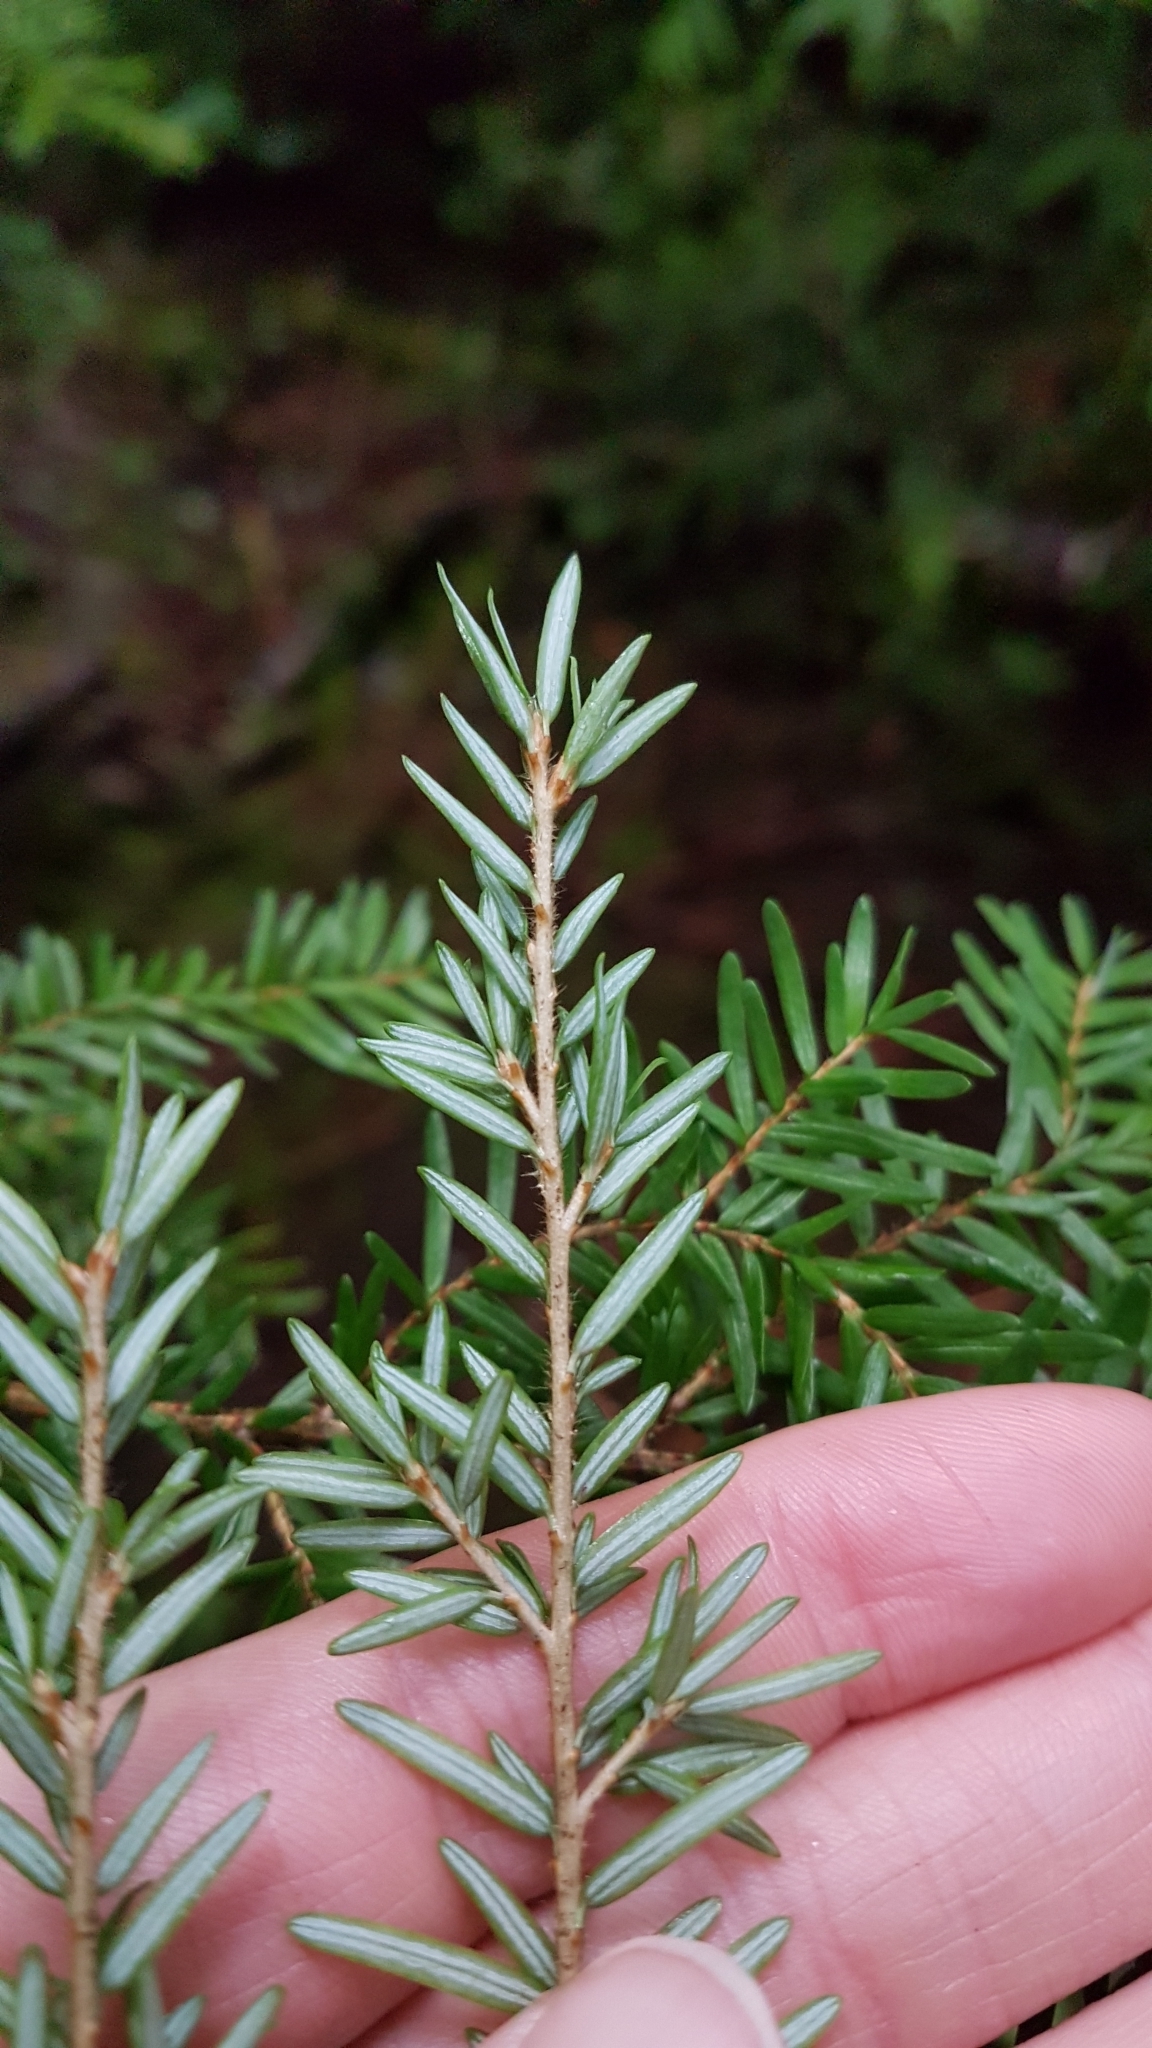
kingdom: Plantae
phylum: Tracheophyta
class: Pinopsida
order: Pinales
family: Pinaceae
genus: Tsuga
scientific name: Tsuga heterophylla
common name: Western hemlock
